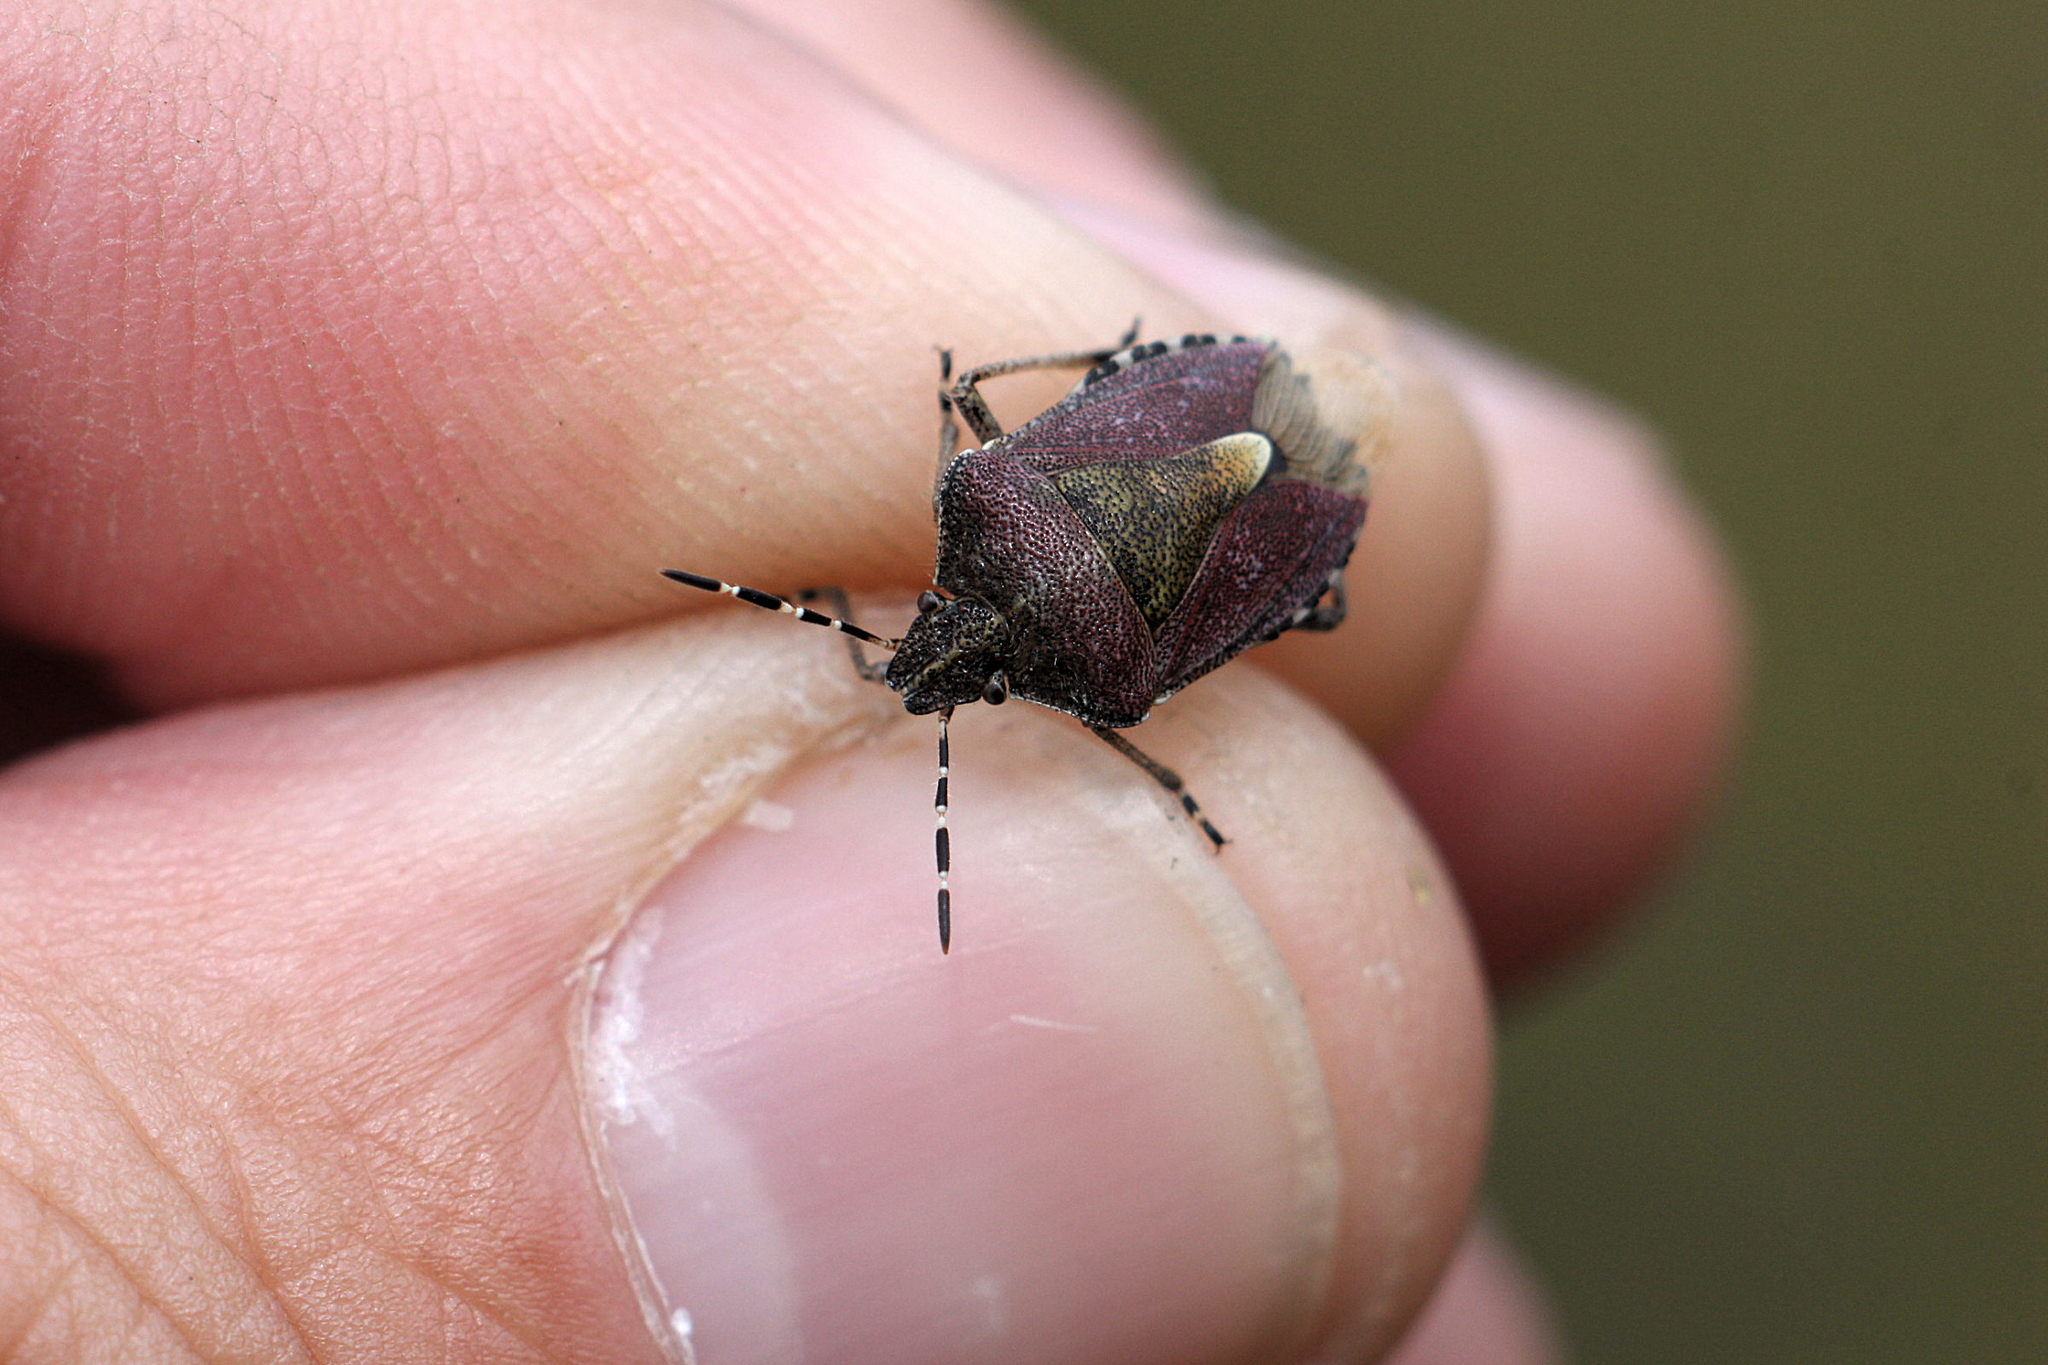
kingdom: Animalia
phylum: Arthropoda
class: Insecta
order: Hemiptera
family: Pentatomidae
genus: Dolycoris
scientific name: Dolycoris baccarum
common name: Sloe bug
